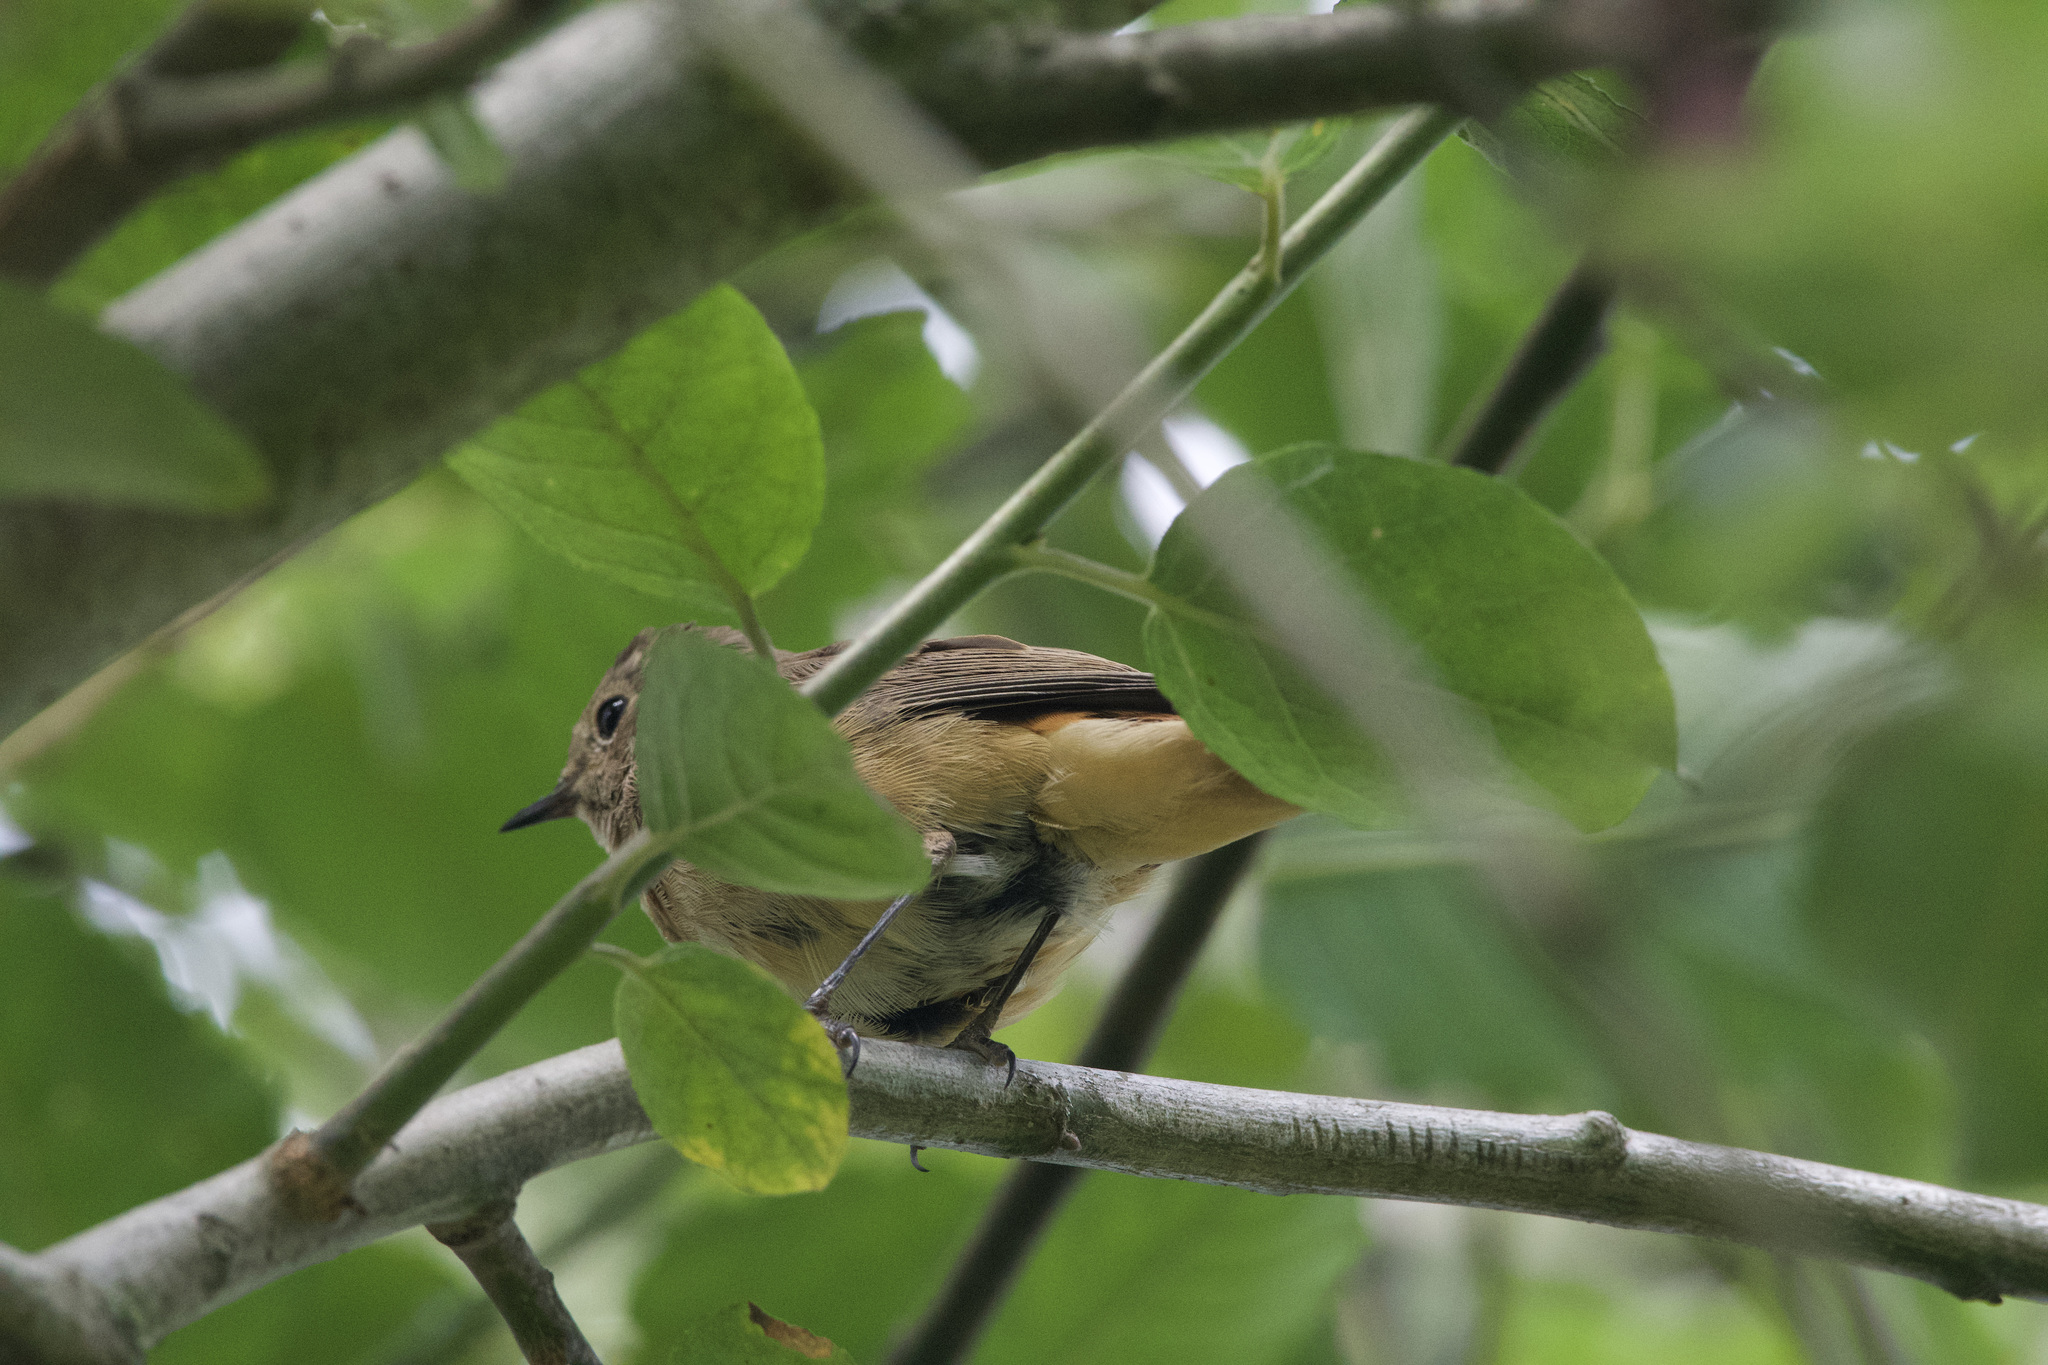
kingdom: Animalia
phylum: Chordata
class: Aves
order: Passeriformes
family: Muscicapidae
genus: Phoenicurus
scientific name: Phoenicurus phoenicurus
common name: Common redstart
